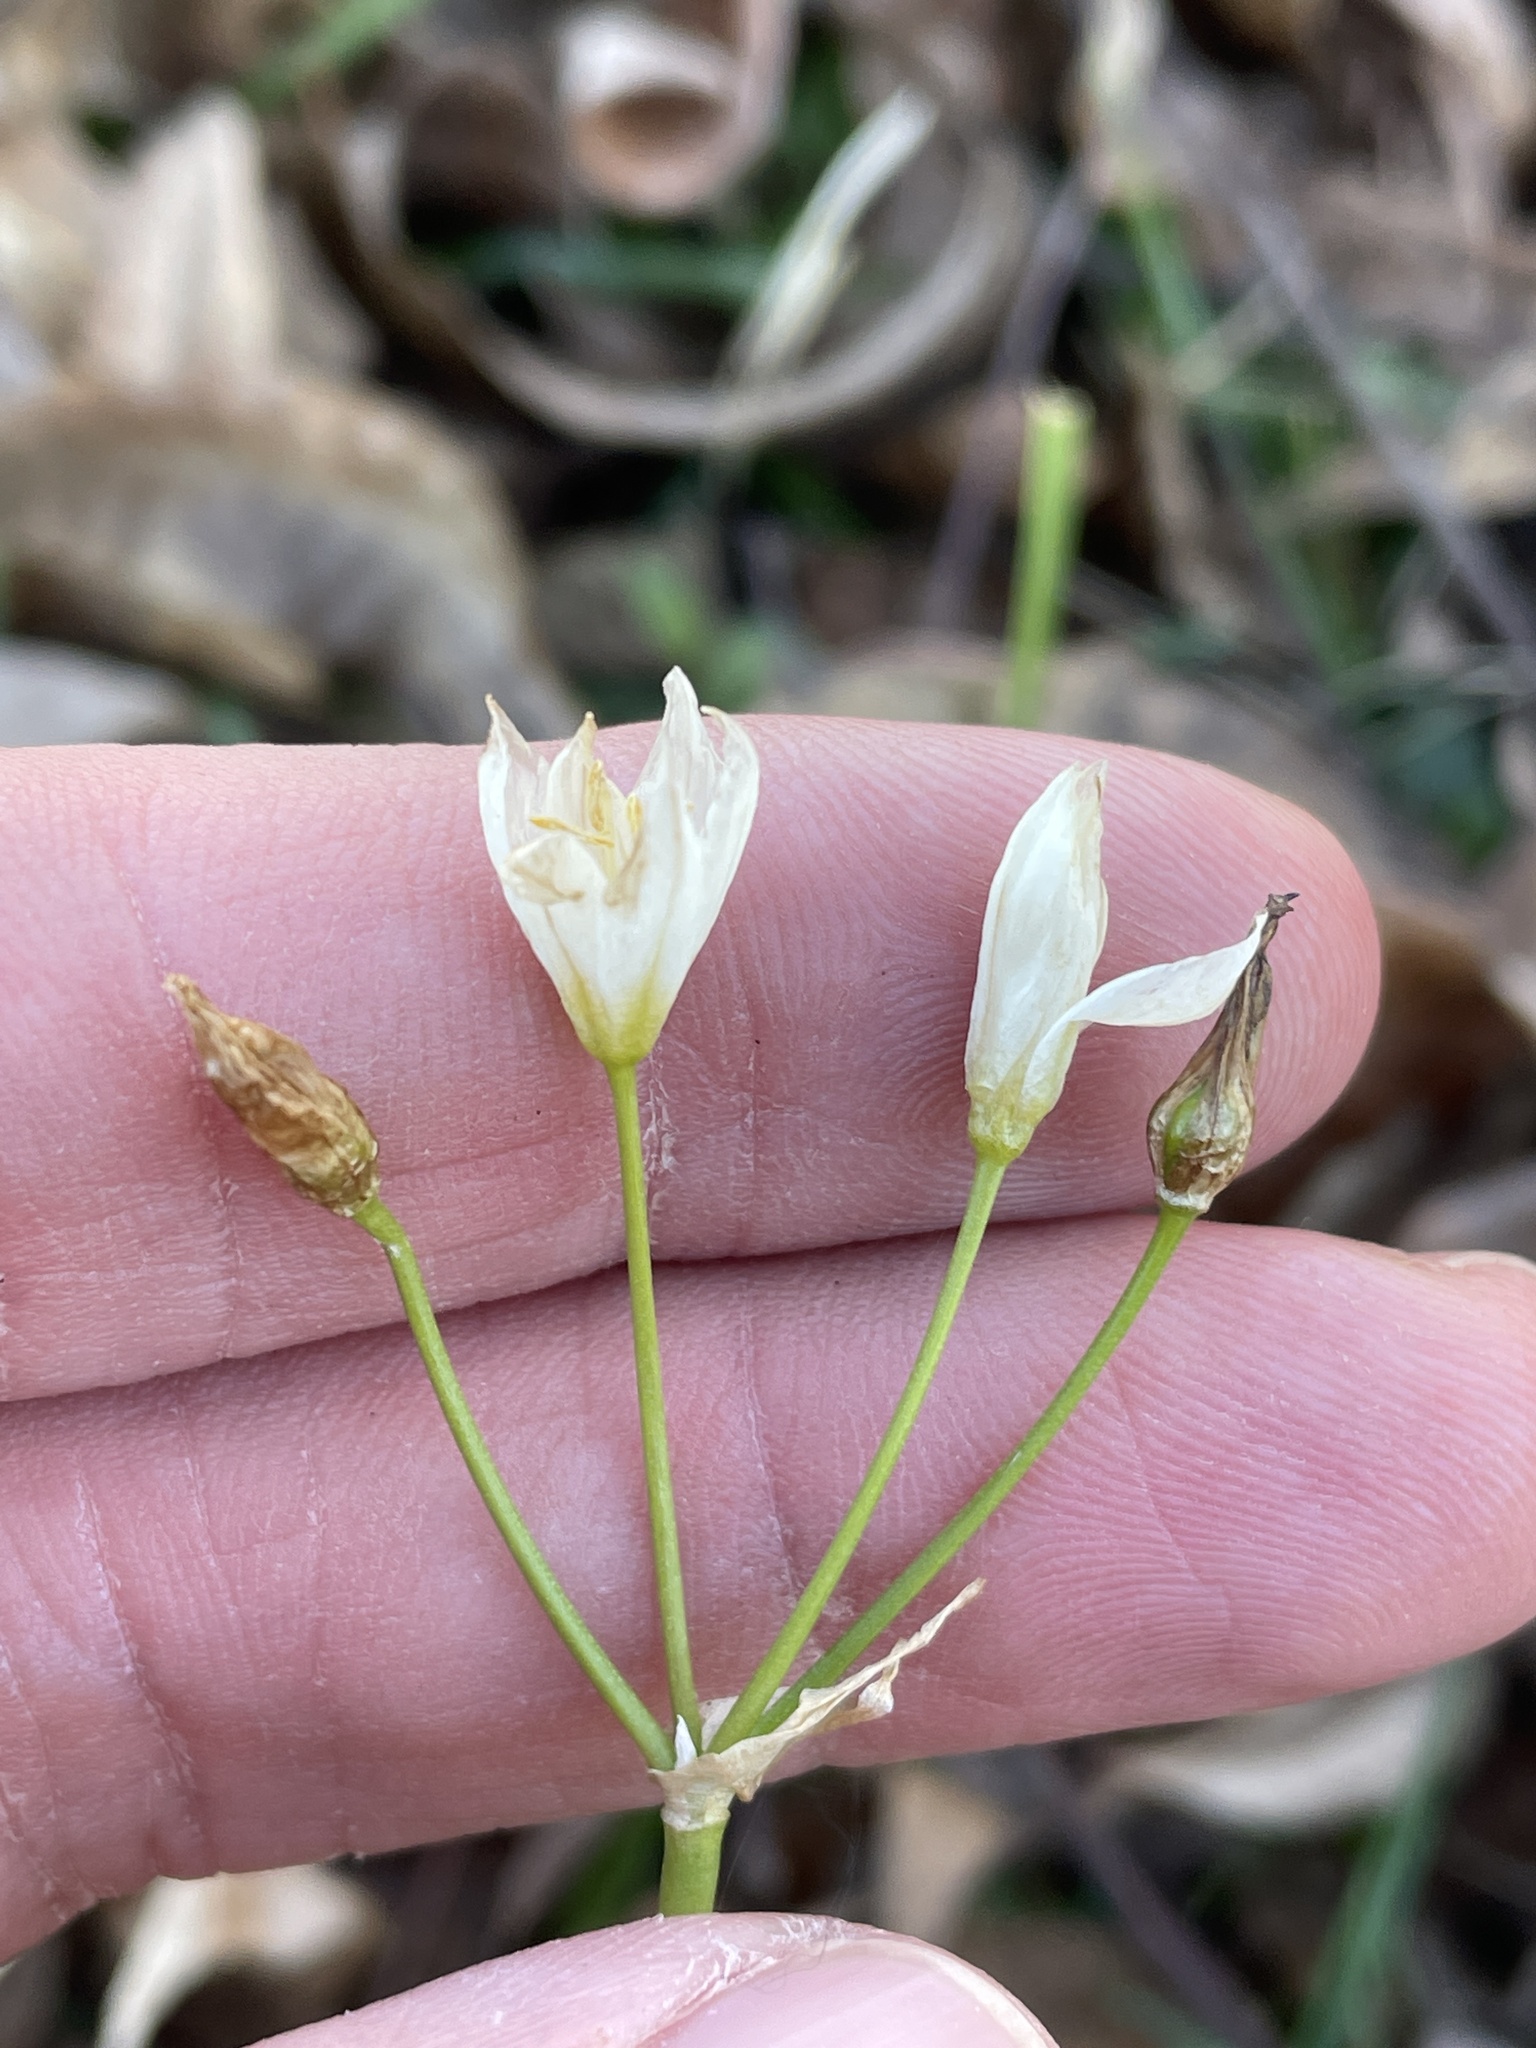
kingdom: Plantae
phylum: Tracheophyta
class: Liliopsida
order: Asparagales
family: Amaryllidaceae
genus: Nothoscordum
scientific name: Nothoscordum bivalve
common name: Crow-poison
